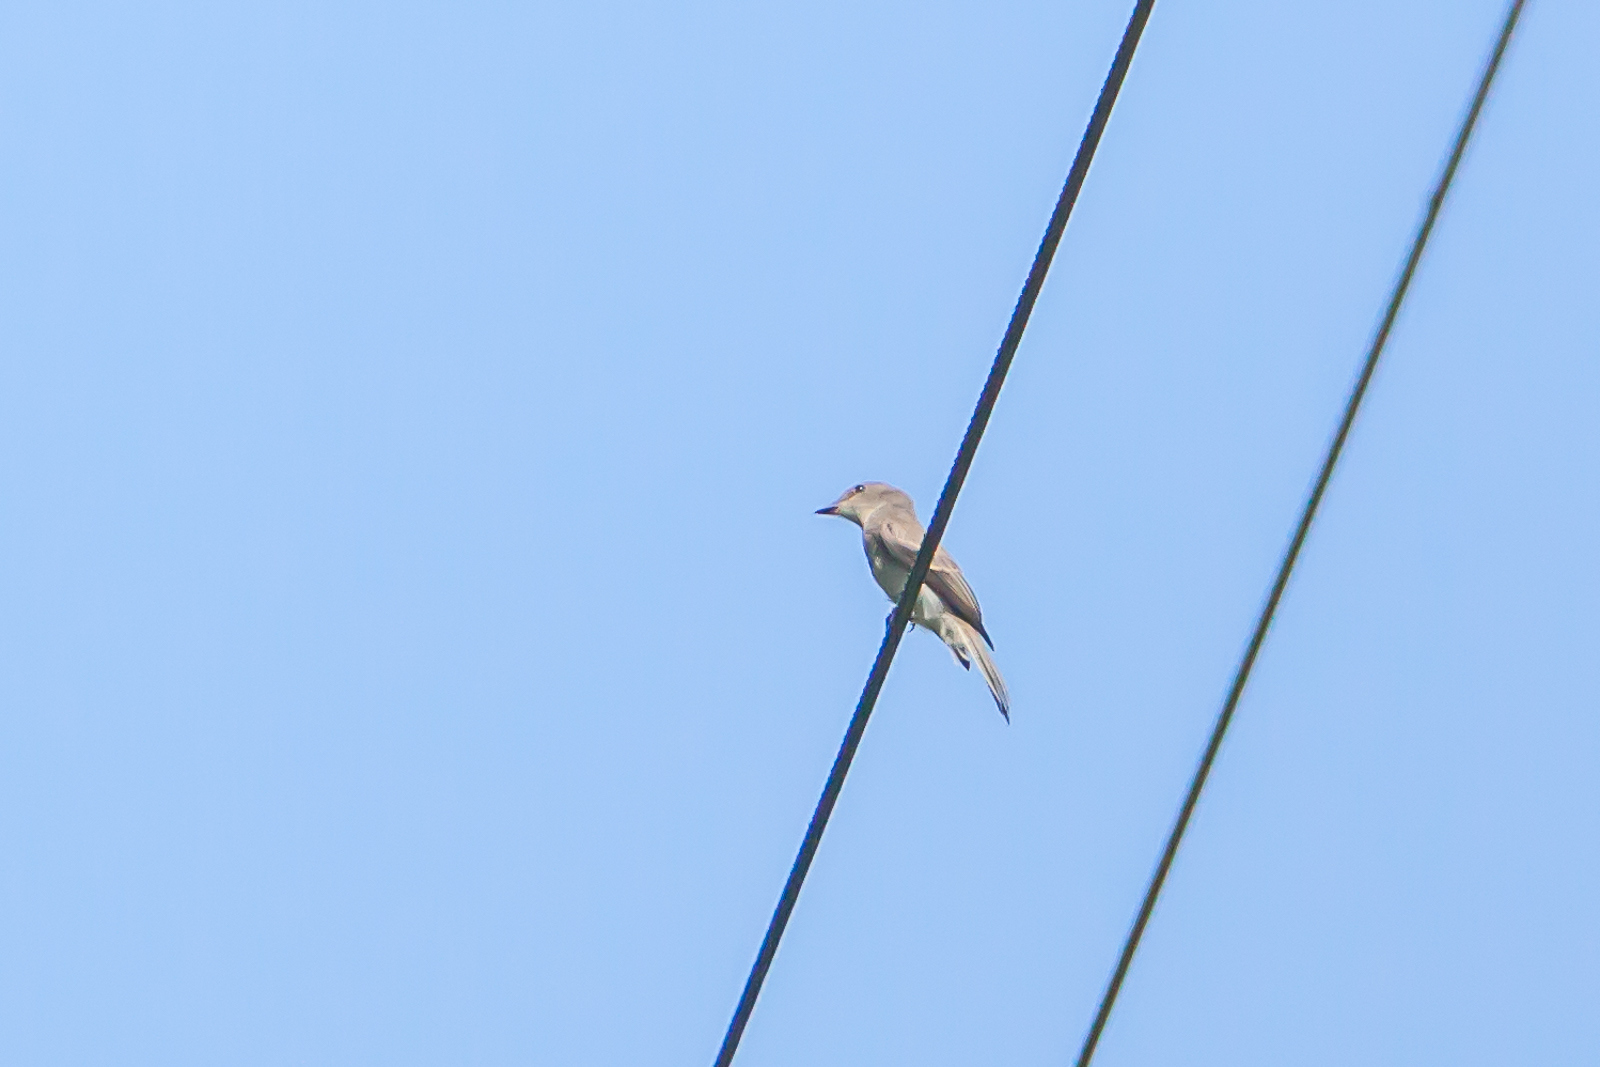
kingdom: Animalia
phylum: Chordata
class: Aves
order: Passeriformes
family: Tyrannidae
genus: Empidonax
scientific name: Empidonax virescens
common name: Acadian flycatcher
